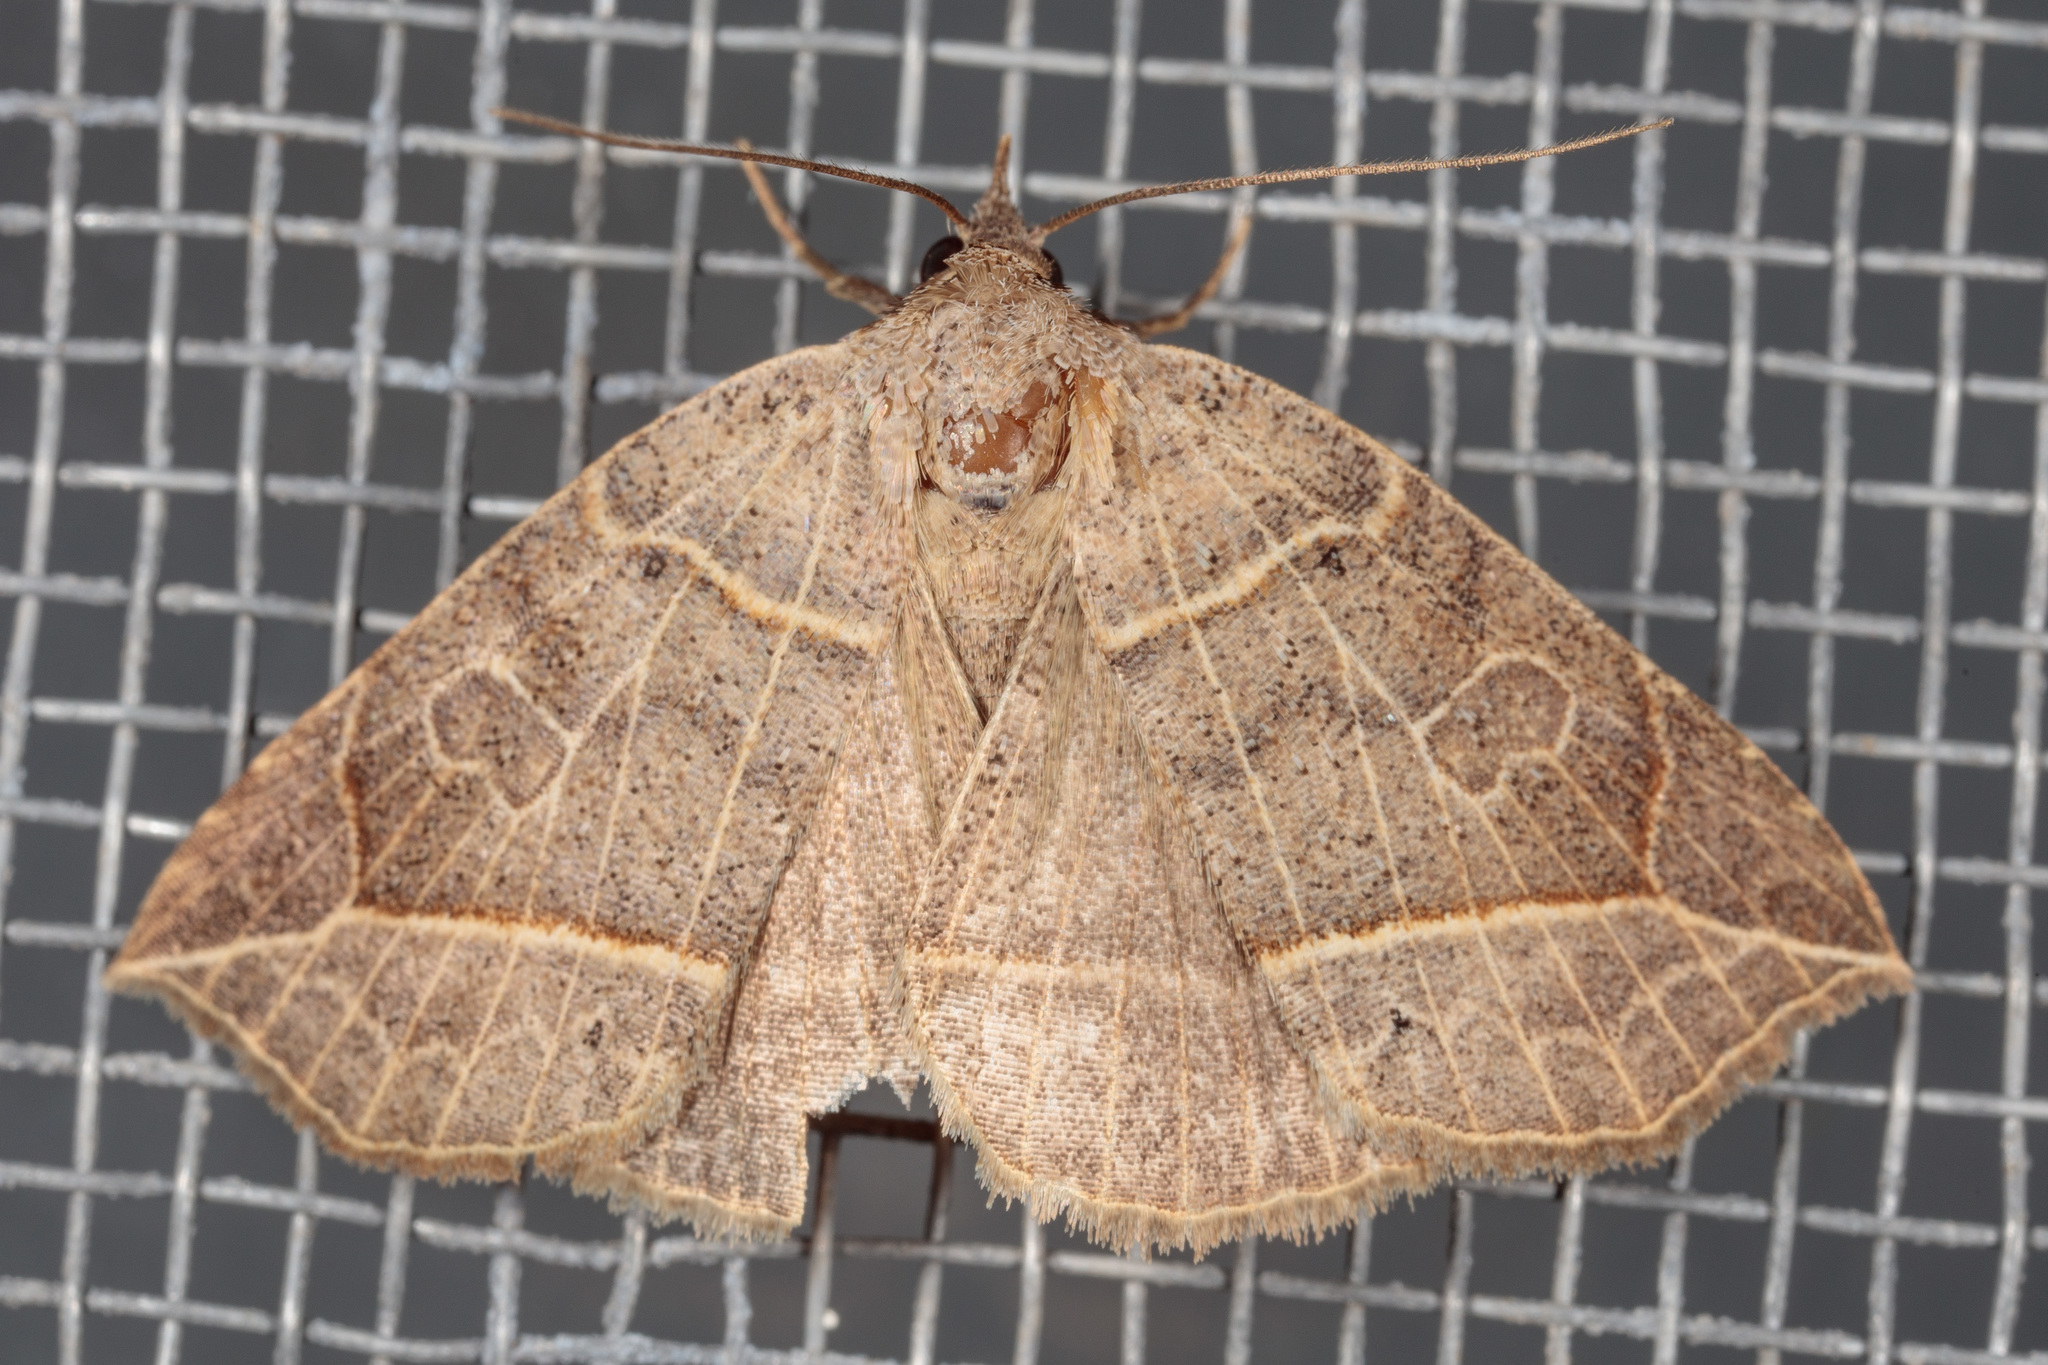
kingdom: Animalia
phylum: Arthropoda
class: Insecta
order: Lepidoptera
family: Erebidae
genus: Isogona
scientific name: Isogona tenuis
